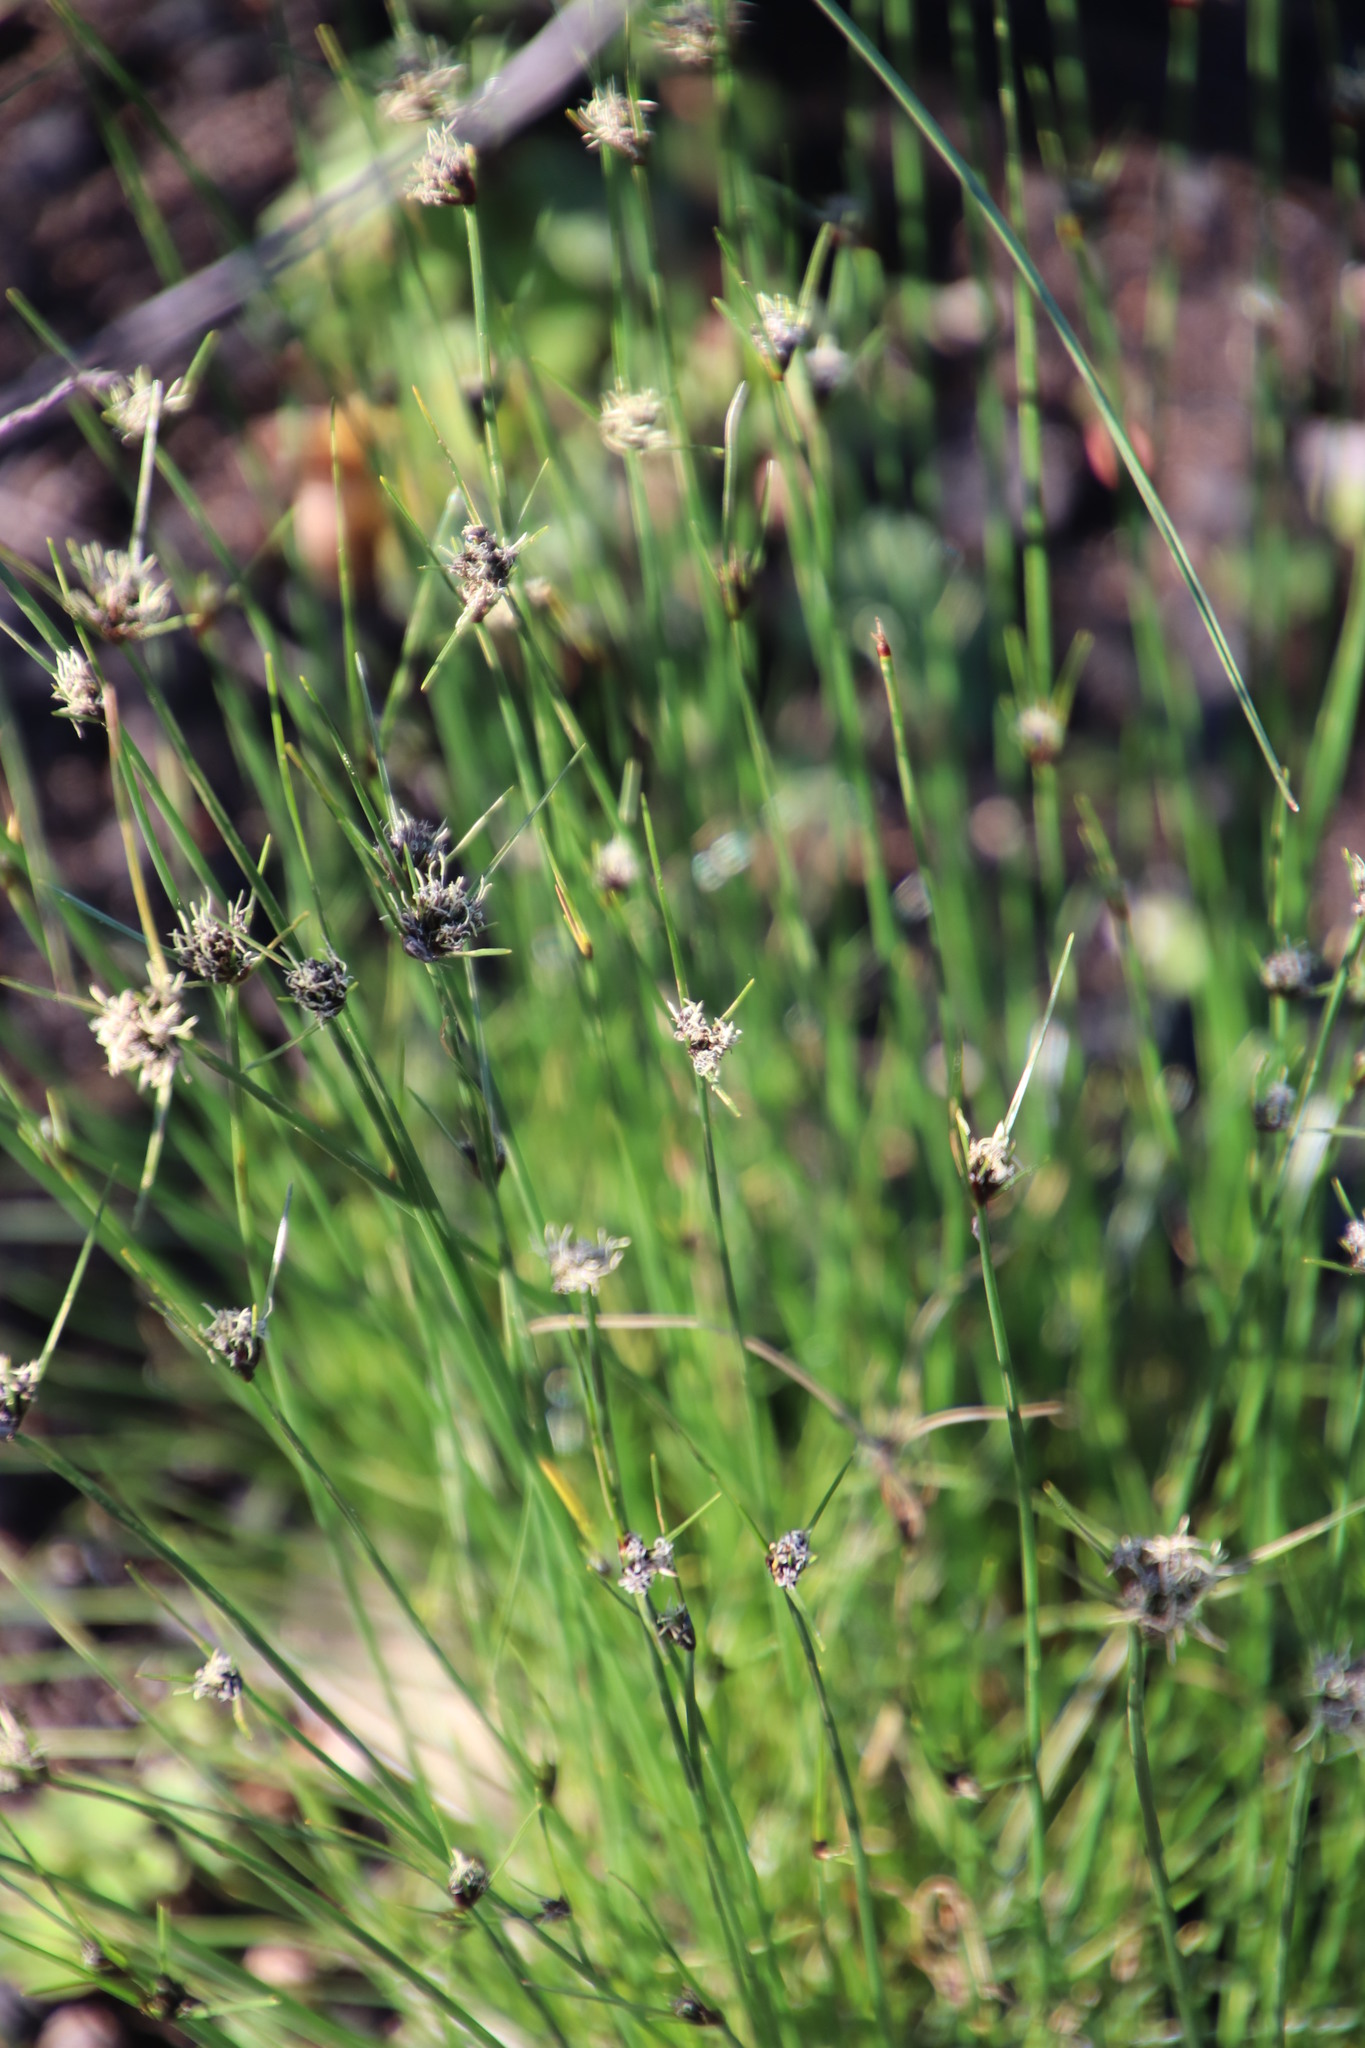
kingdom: Plantae
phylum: Tracheophyta
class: Liliopsida
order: Poales
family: Cyperaceae
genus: Ficinia
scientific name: Ficinia indica
